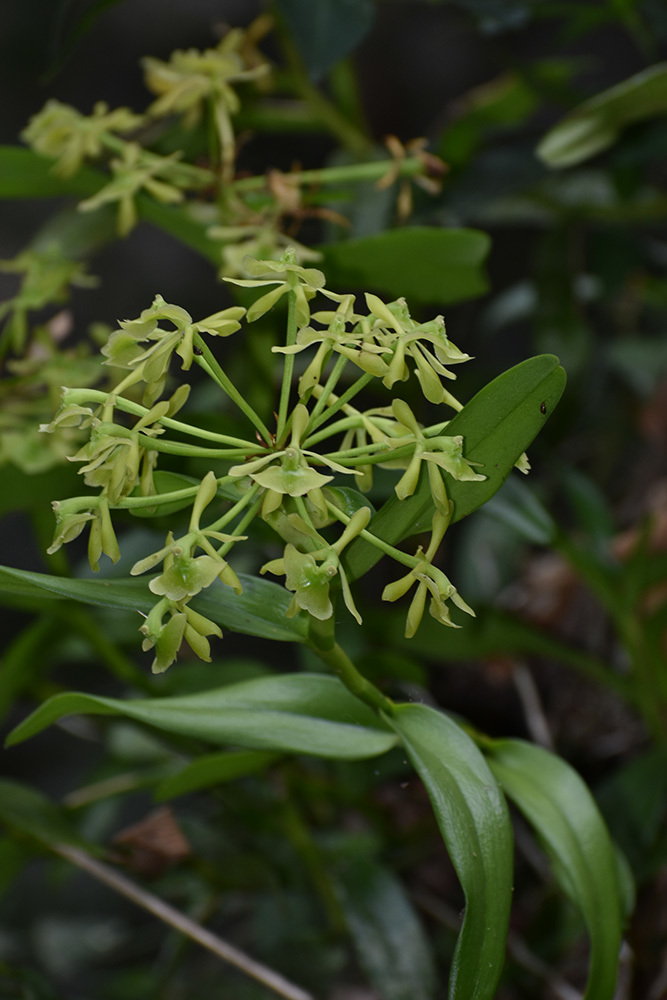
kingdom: Plantae
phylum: Tracheophyta
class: Liliopsida
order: Asparagales
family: Orchidaceae
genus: Epidendrum
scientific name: Epidendrum melistagum
